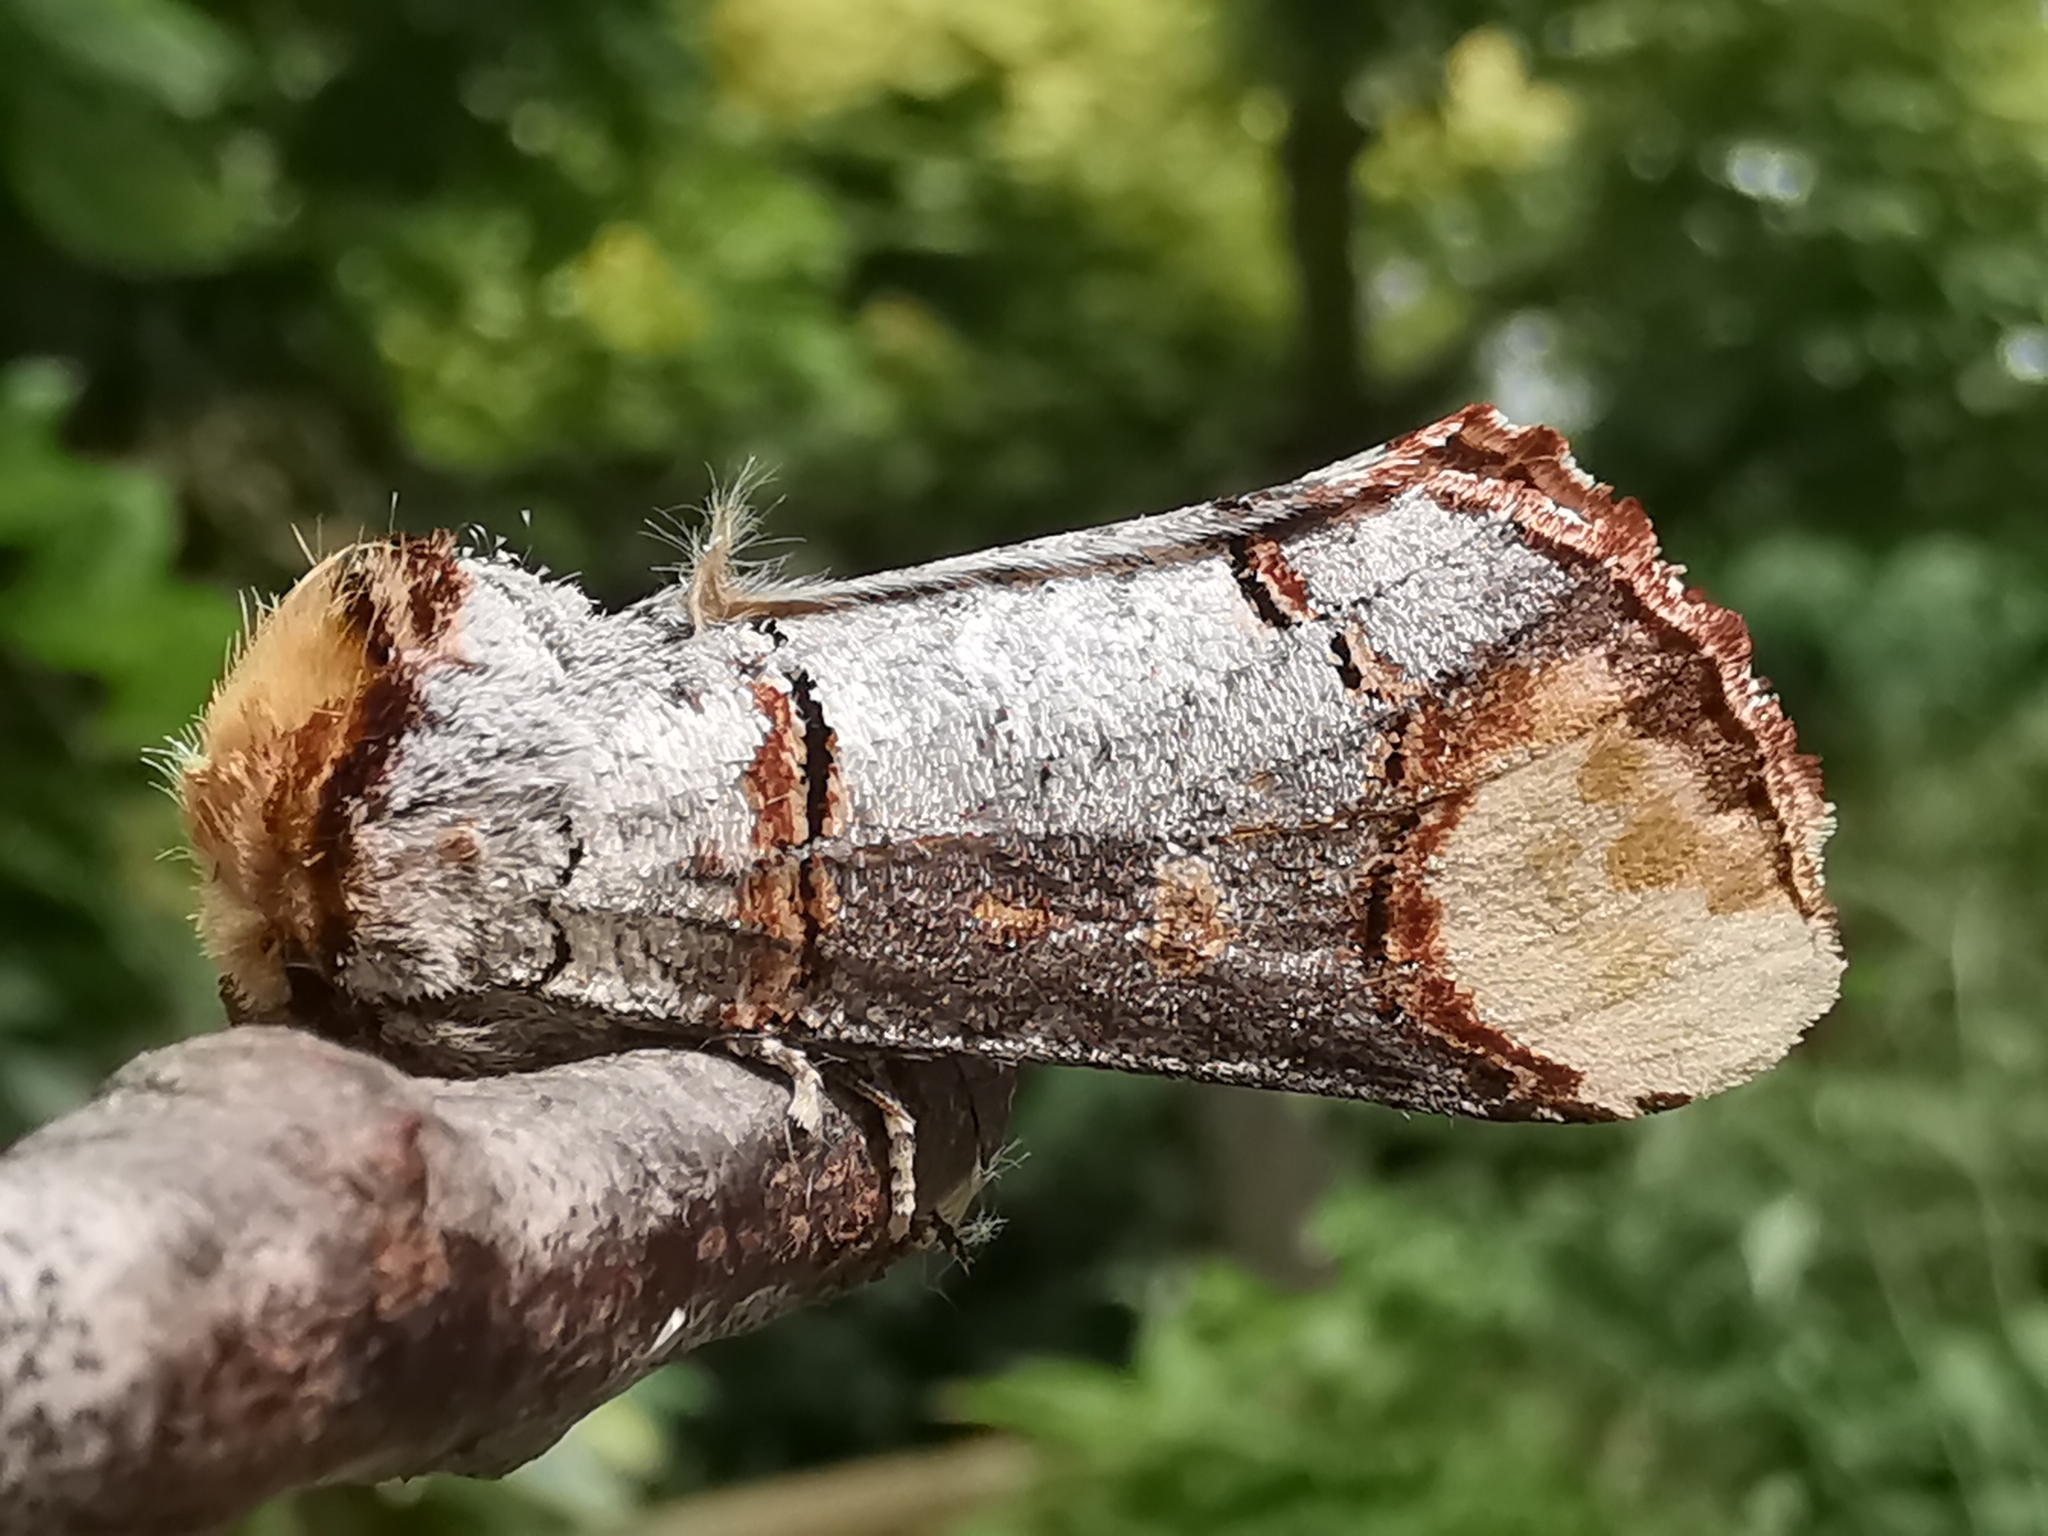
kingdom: Animalia
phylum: Arthropoda
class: Insecta
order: Lepidoptera
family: Notodontidae
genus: Phalera
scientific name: Phalera bucephala
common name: Buff-tip
